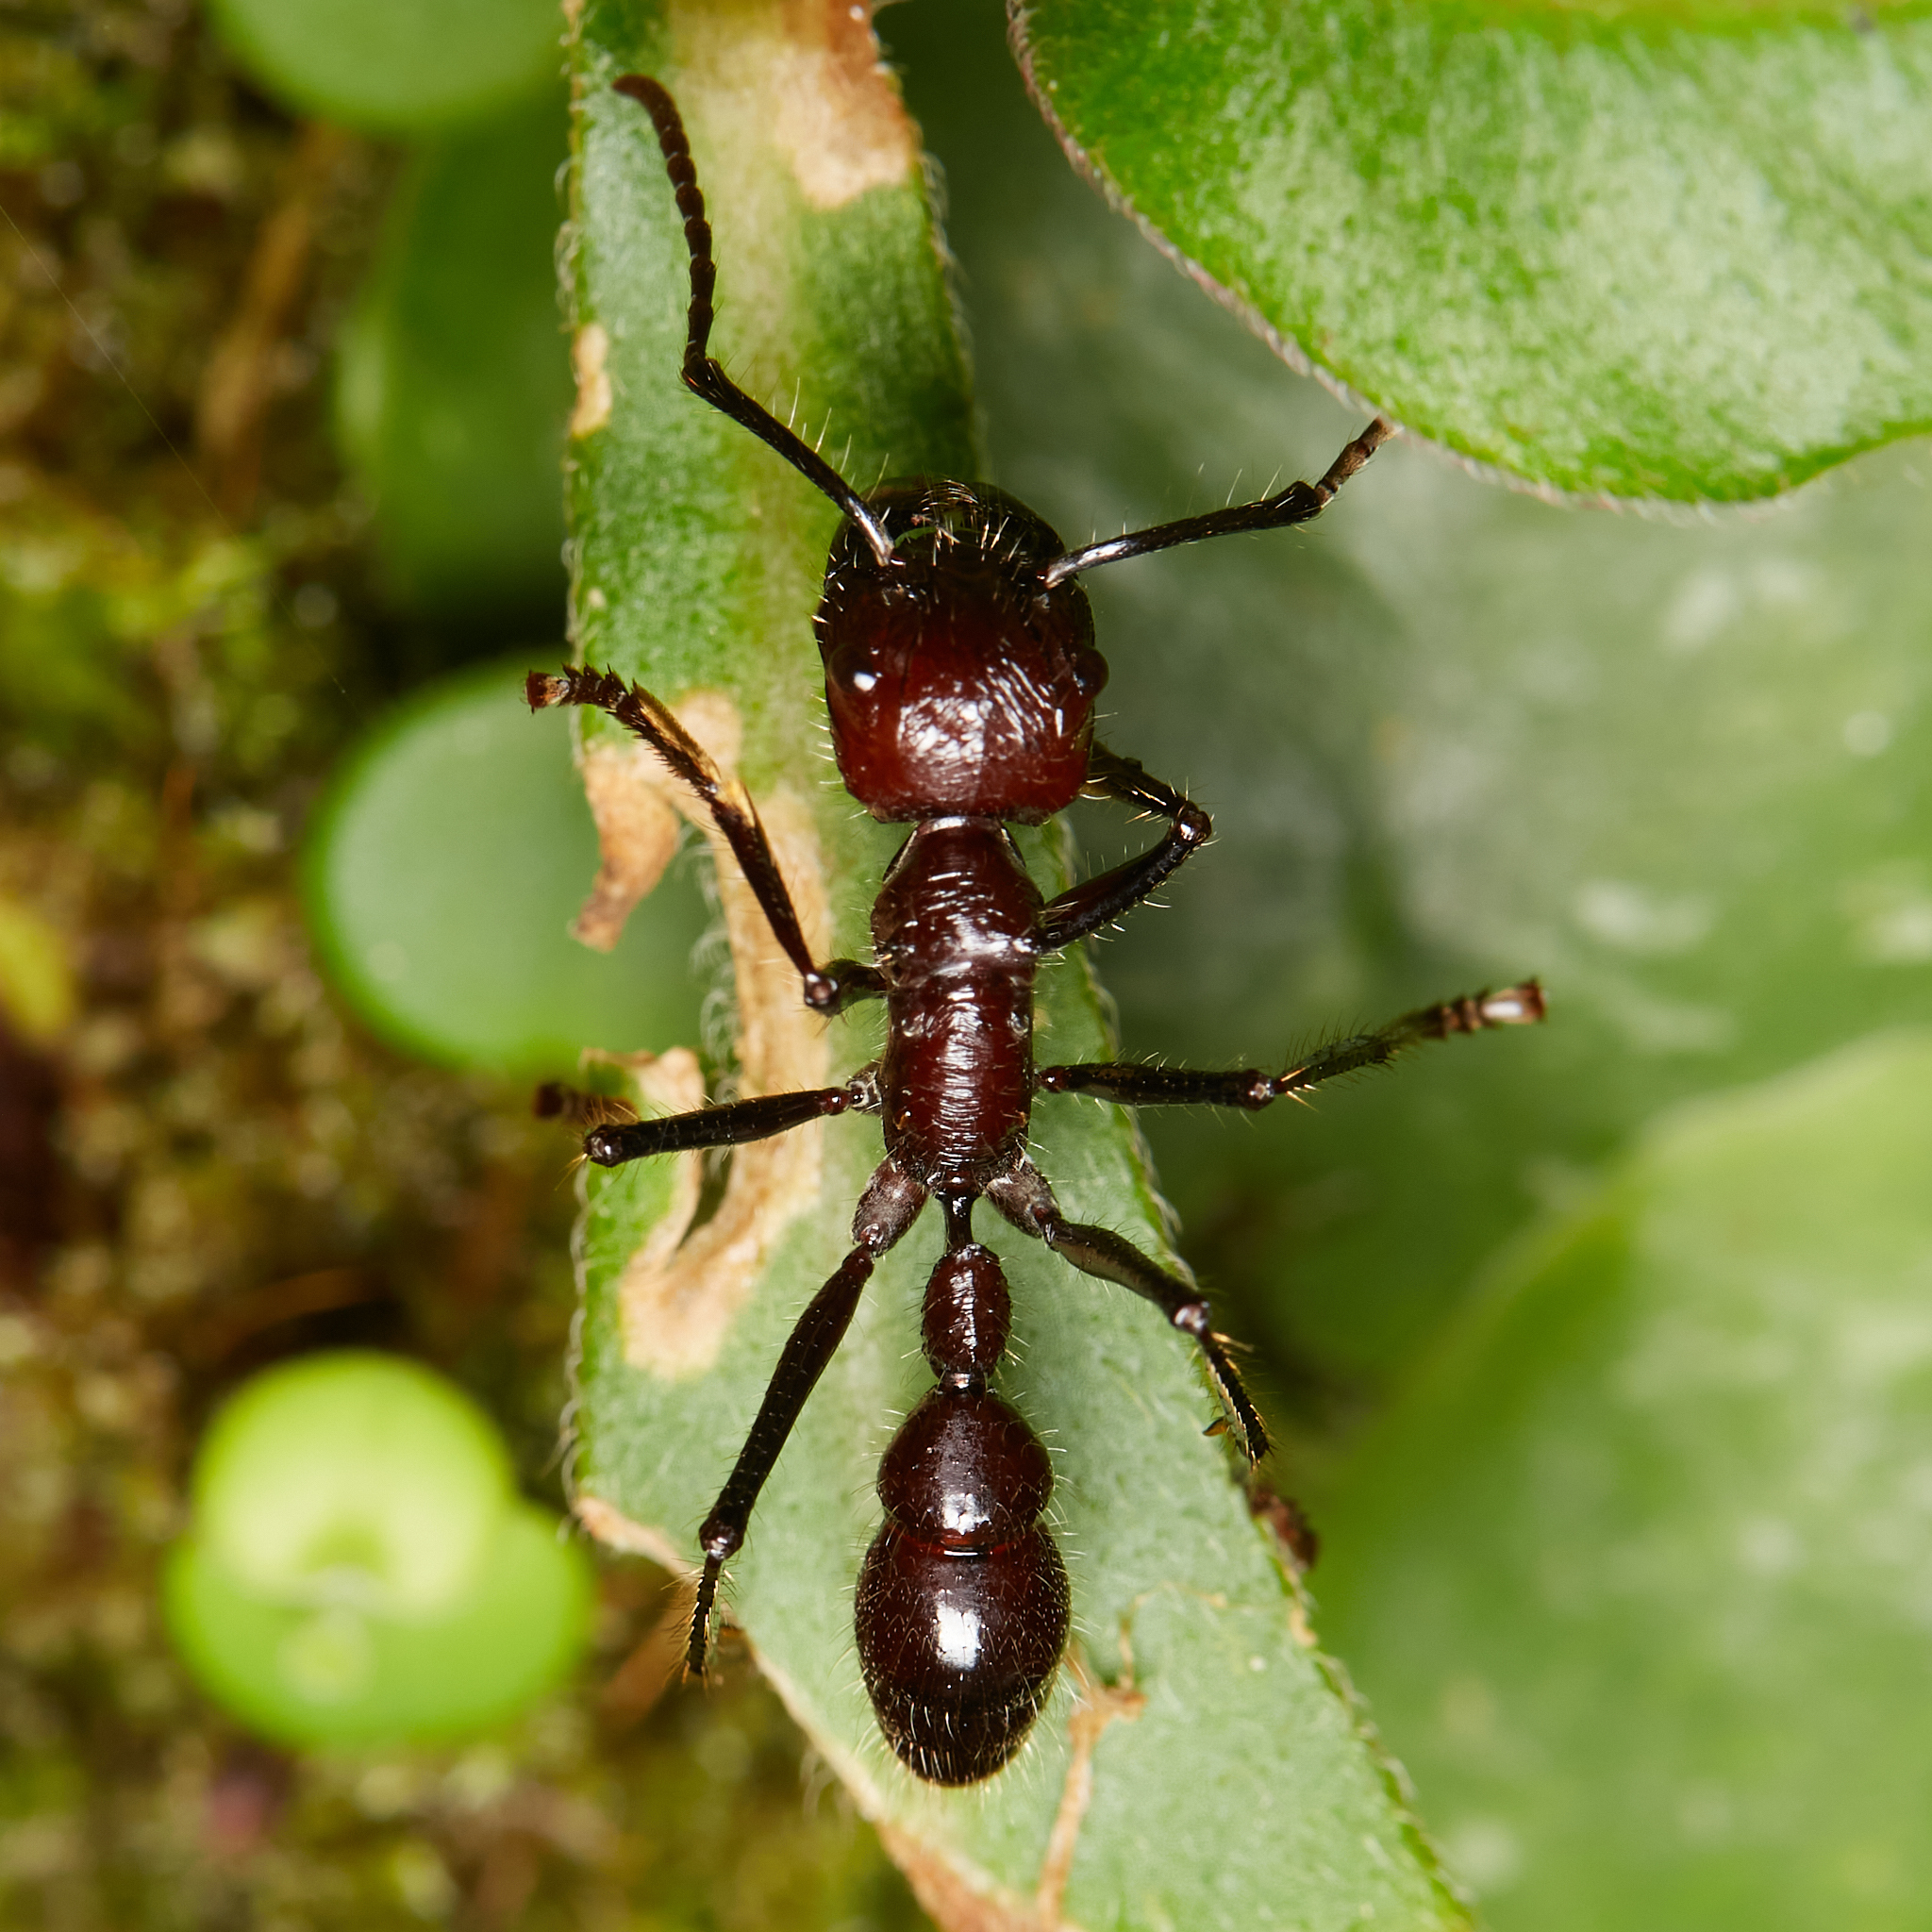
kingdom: Animalia
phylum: Arthropoda
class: Insecta
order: Hymenoptera
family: Formicidae
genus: Paraponera
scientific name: Paraponera clavata
